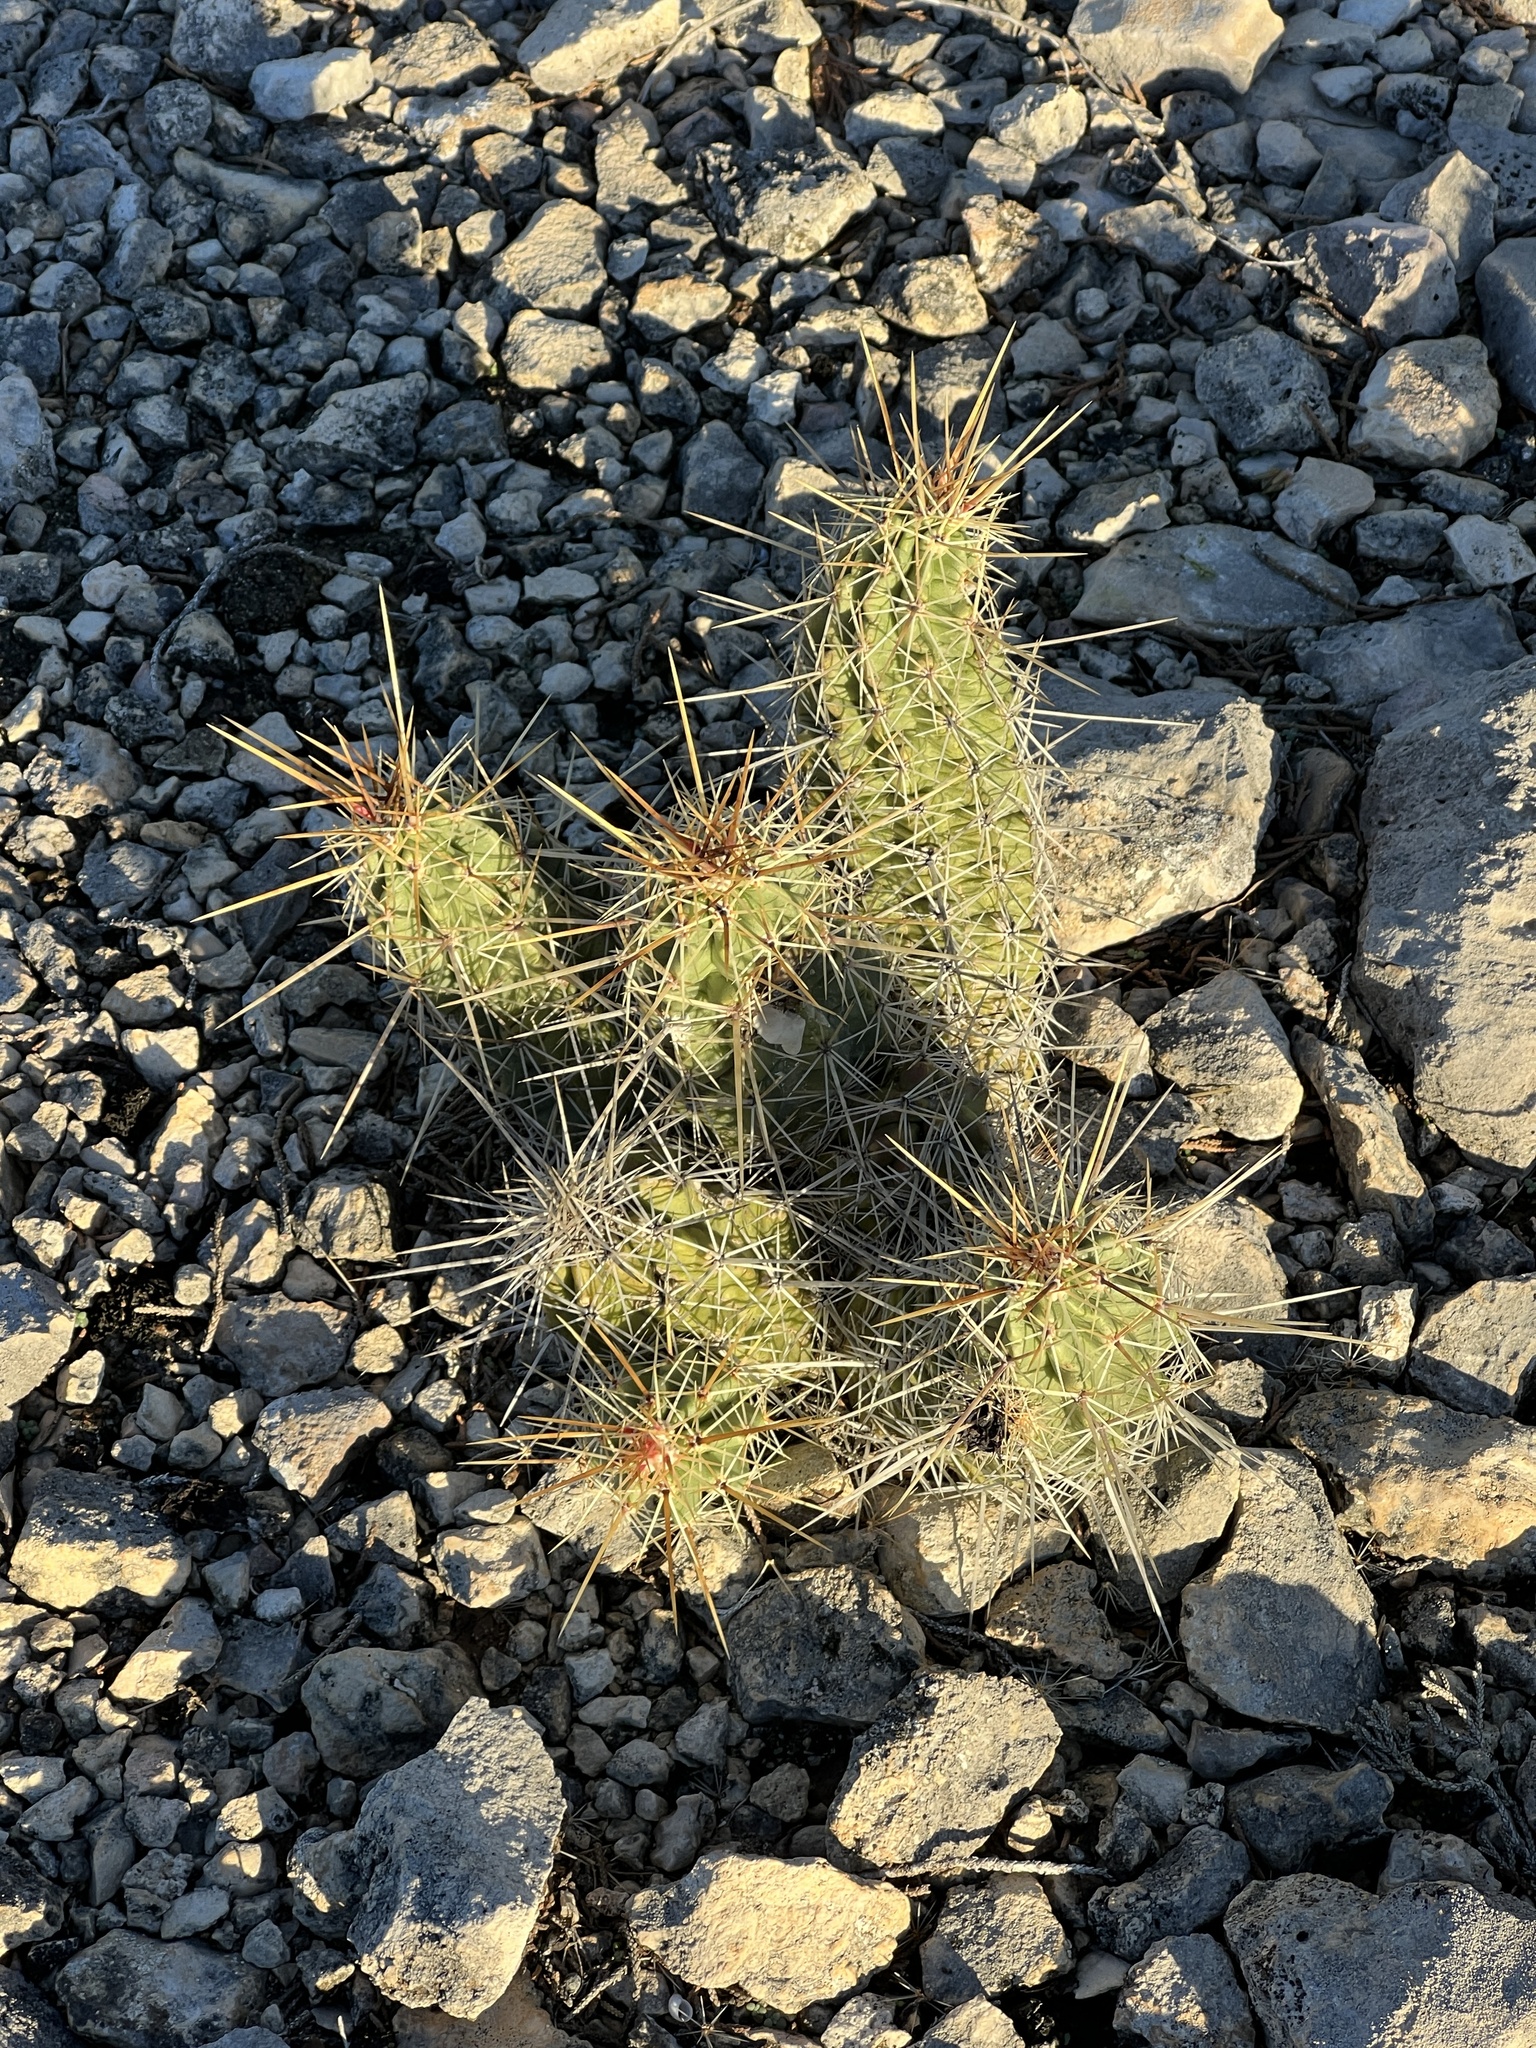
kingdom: Plantae
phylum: Tracheophyta
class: Magnoliopsida
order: Caryophyllales
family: Cactaceae
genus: Echinocereus
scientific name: Echinocereus enneacanthus
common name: Pitaya
